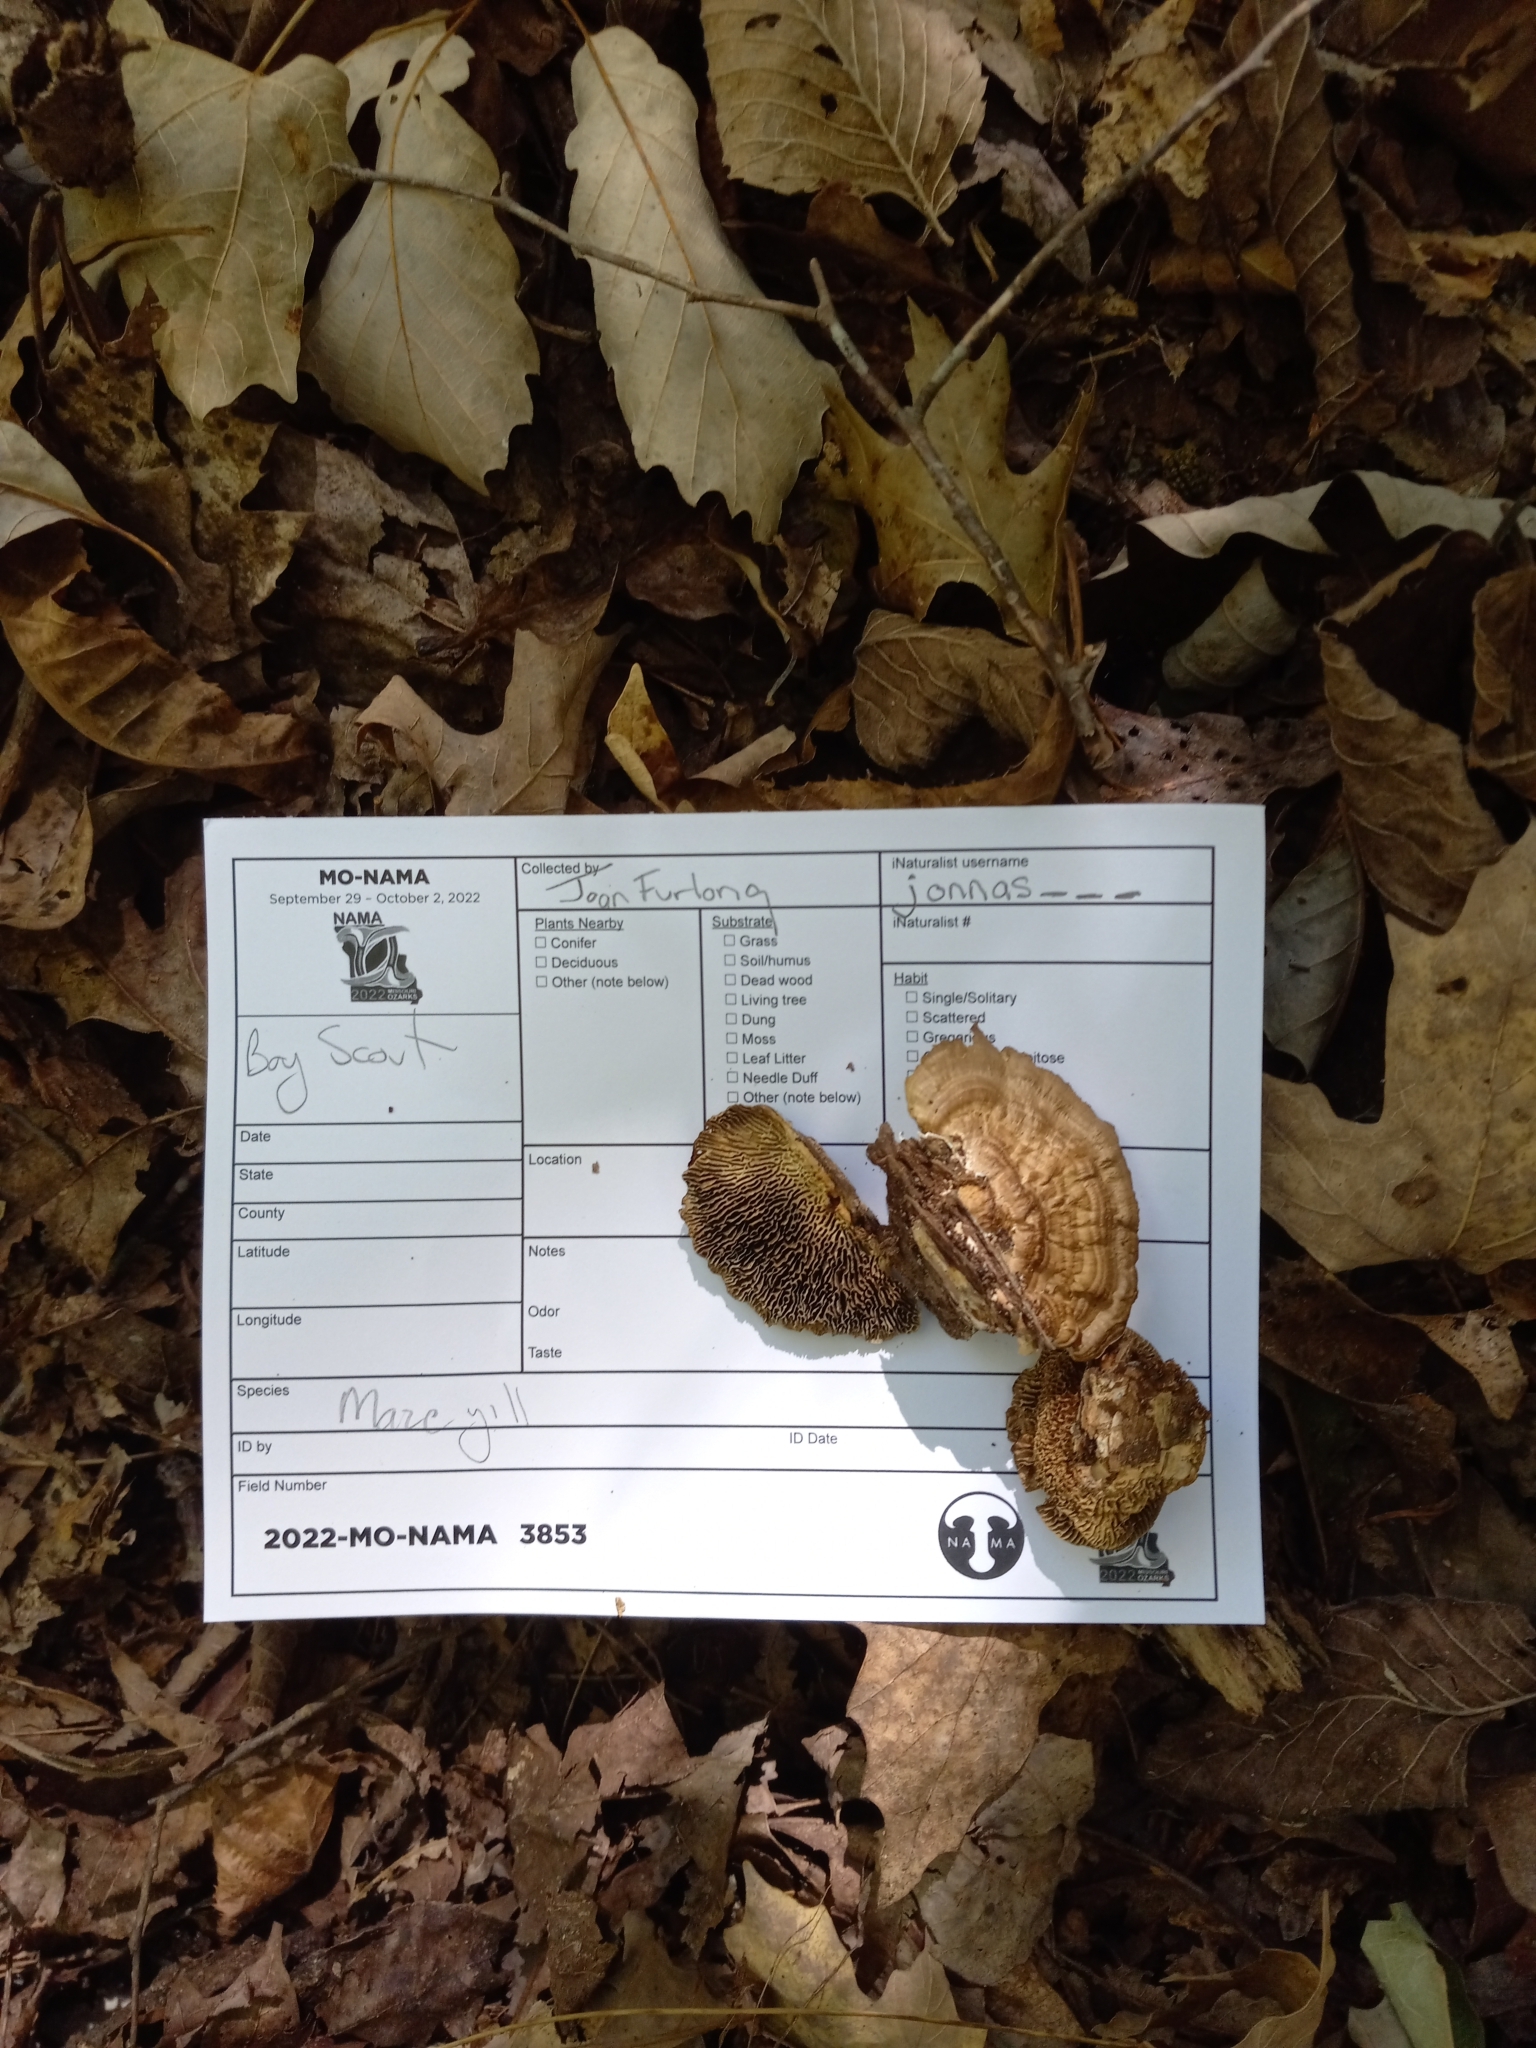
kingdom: Fungi
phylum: Basidiomycota
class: Agaricomycetes
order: Polyporales
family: Polyporaceae
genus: Daedaleopsis
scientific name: Daedaleopsis confragosa
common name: Blushing bracket
